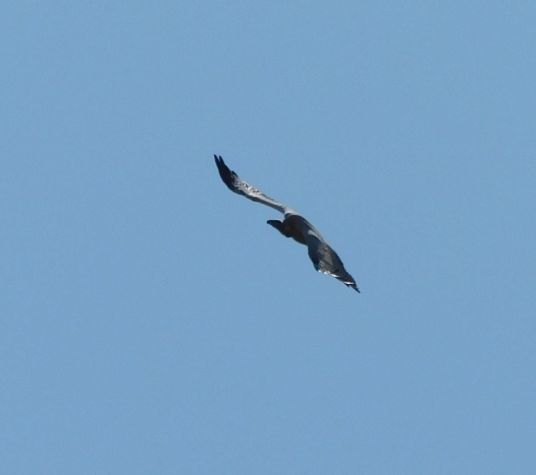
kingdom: Animalia
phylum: Chordata
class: Aves
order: Accipitriformes
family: Accipitridae
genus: Gyps
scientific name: Gyps coprotheres
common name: Cape vulture
